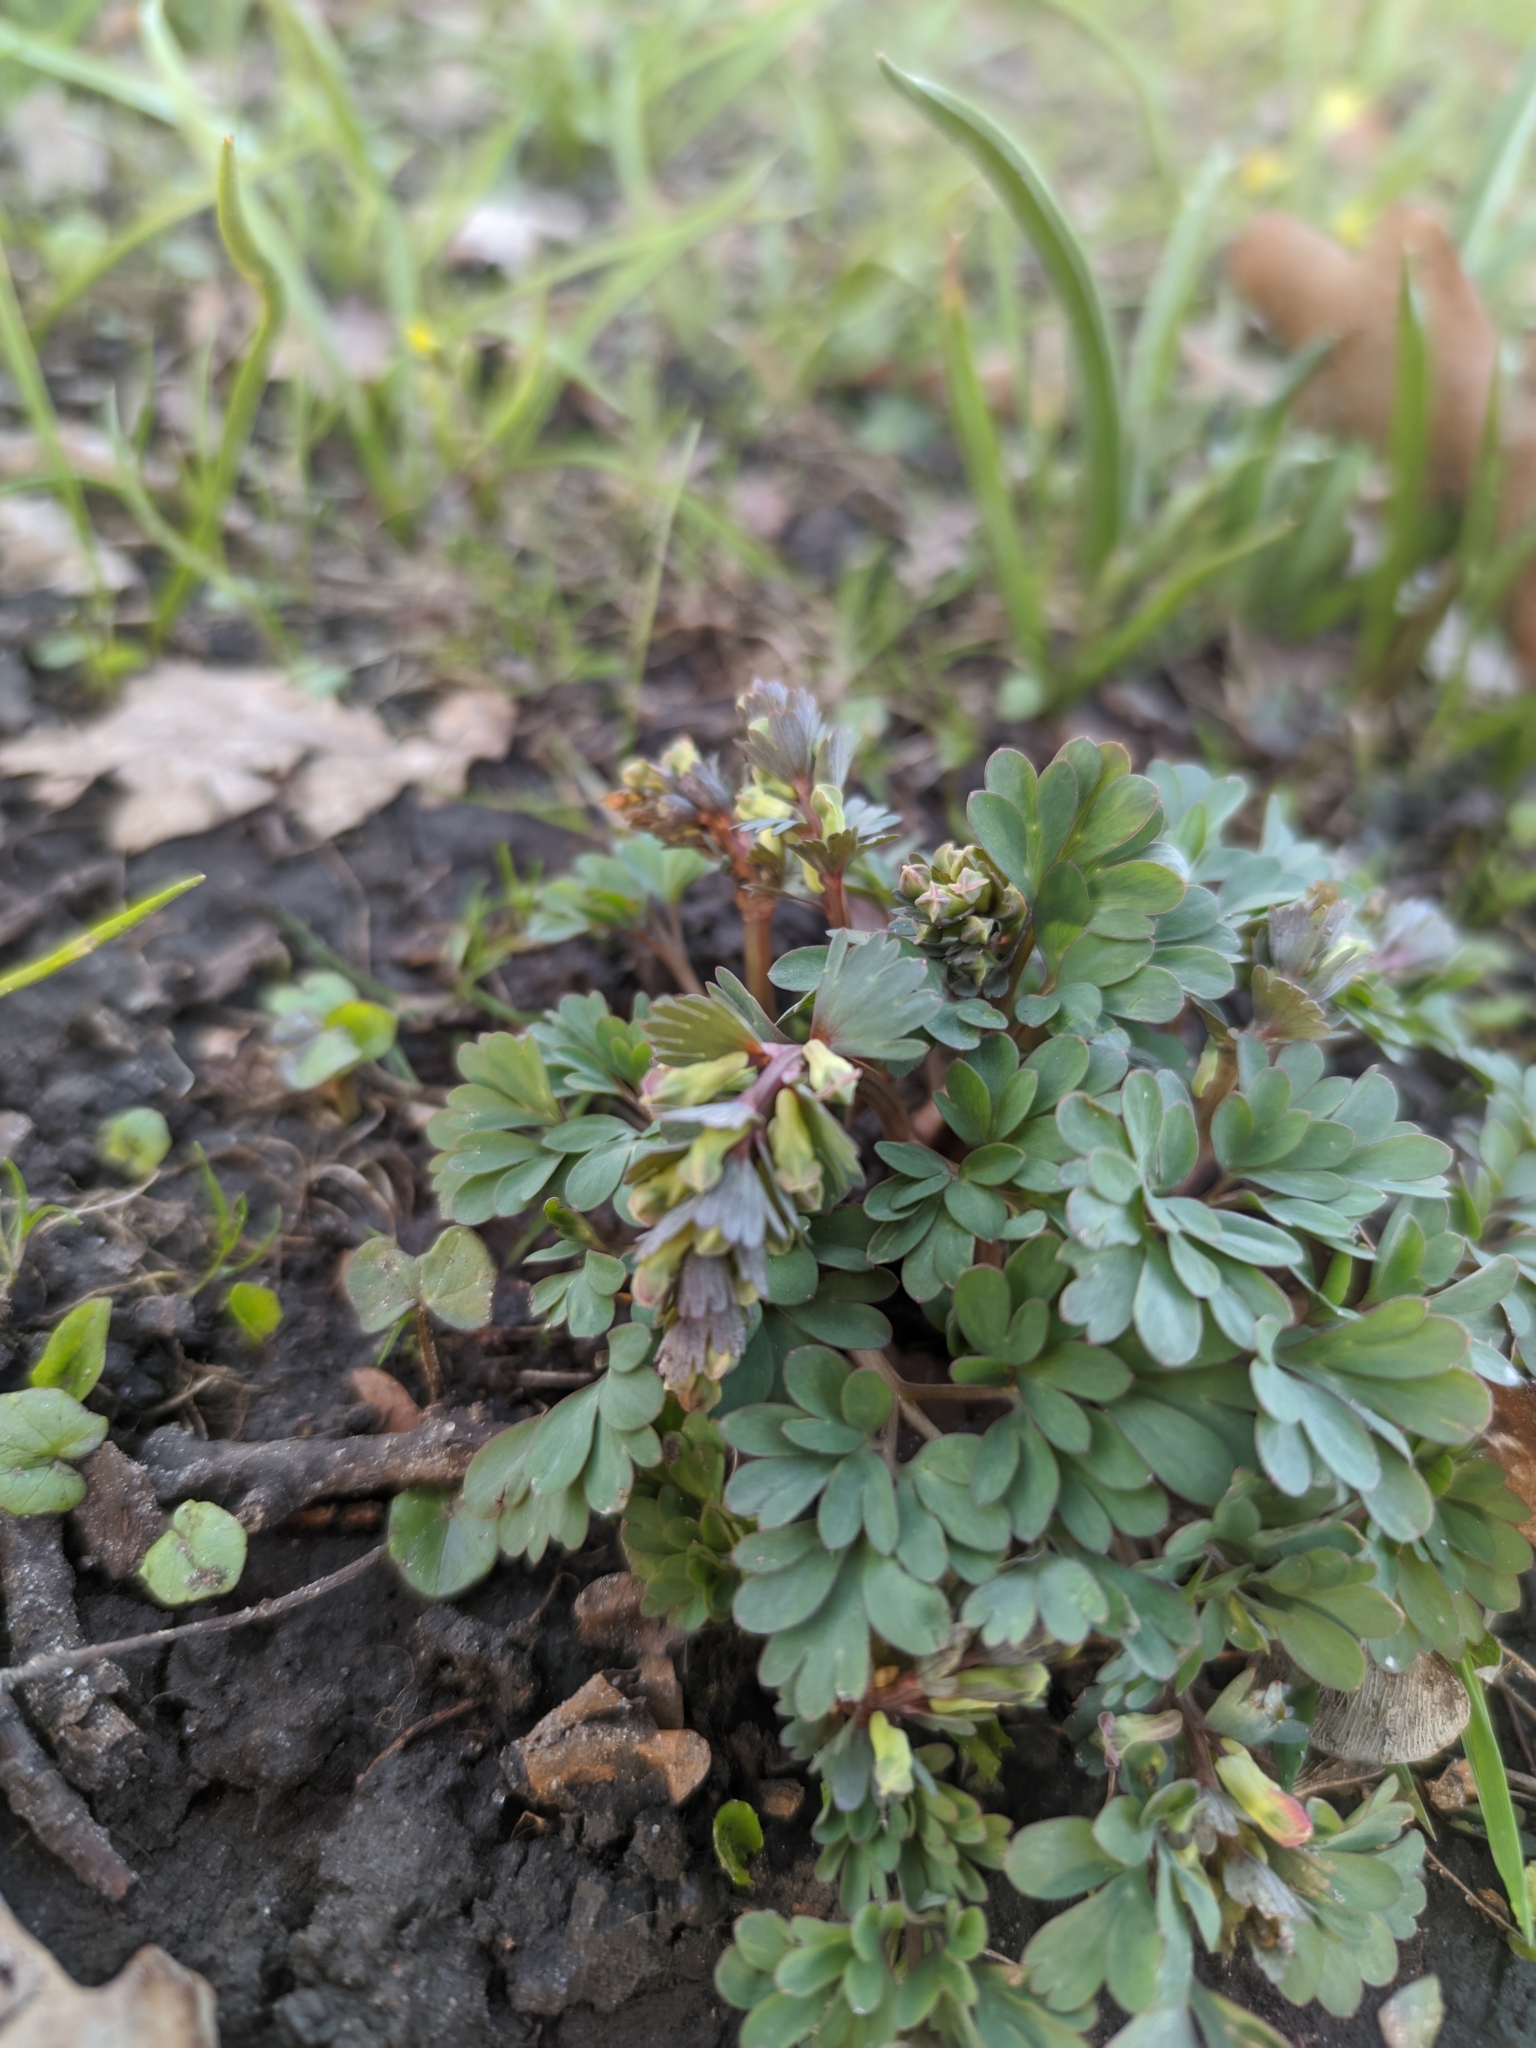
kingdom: Plantae
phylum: Tracheophyta
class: Magnoliopsida
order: Ranunculales
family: Papaveraceae
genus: Corydalis
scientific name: Corydalis solida
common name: Bird-in-a-bush
